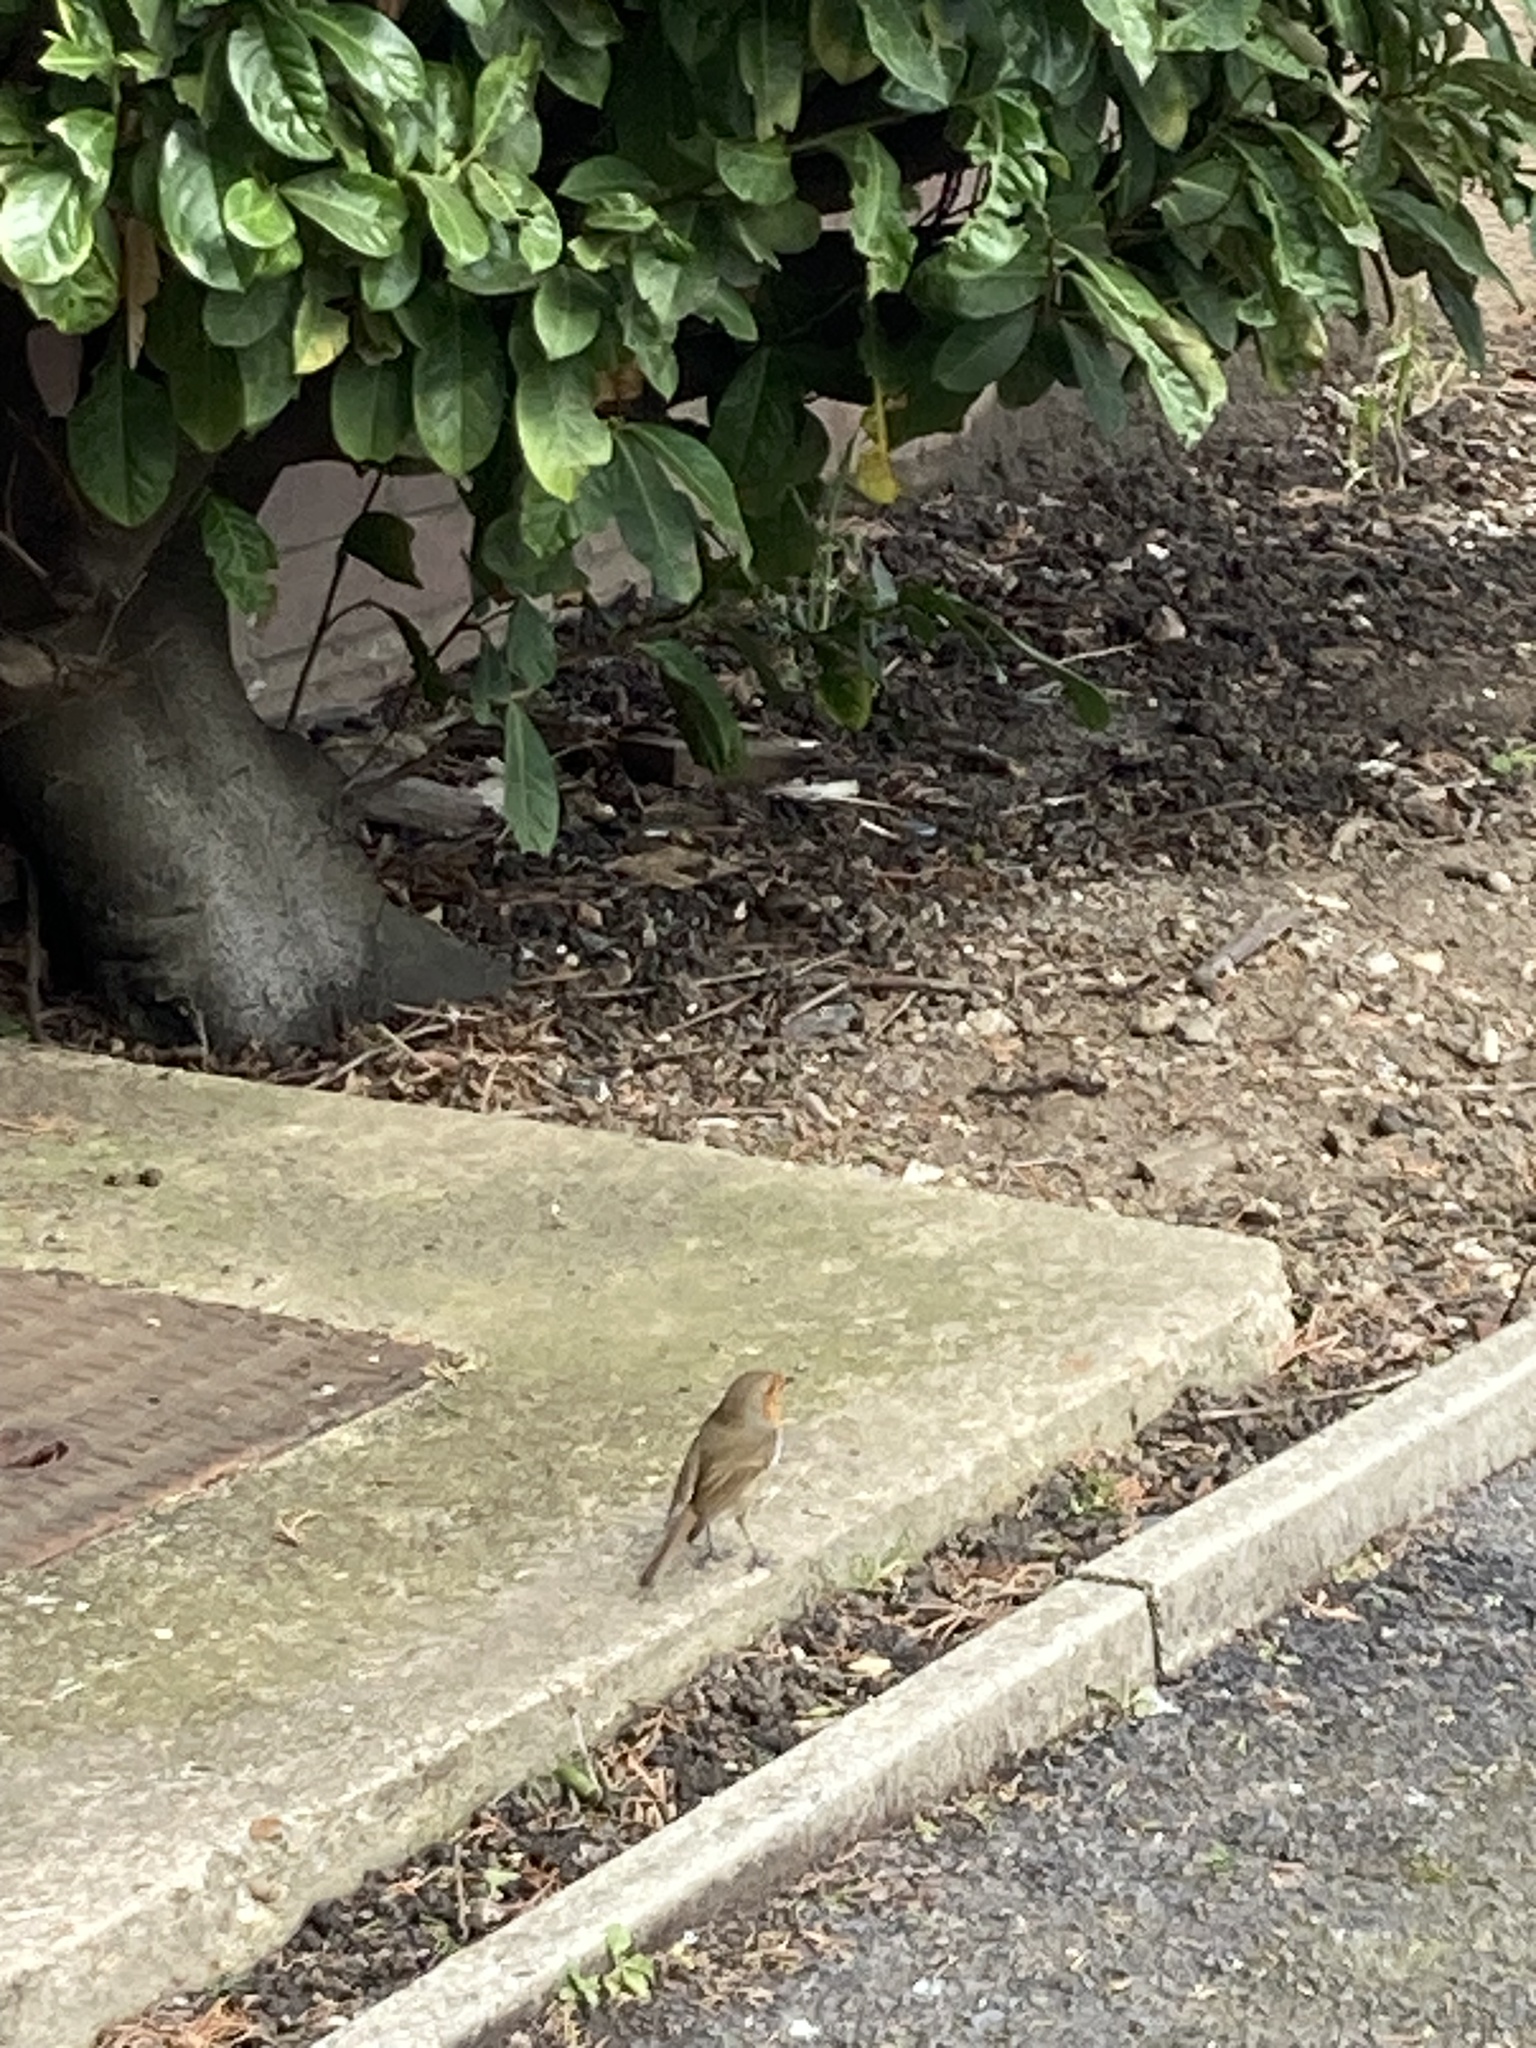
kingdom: Animalia
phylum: Chordata
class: Aves
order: Passeriformes
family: Muscicapidae
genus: Erithacus
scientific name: Erithacus rubecula
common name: European robin
